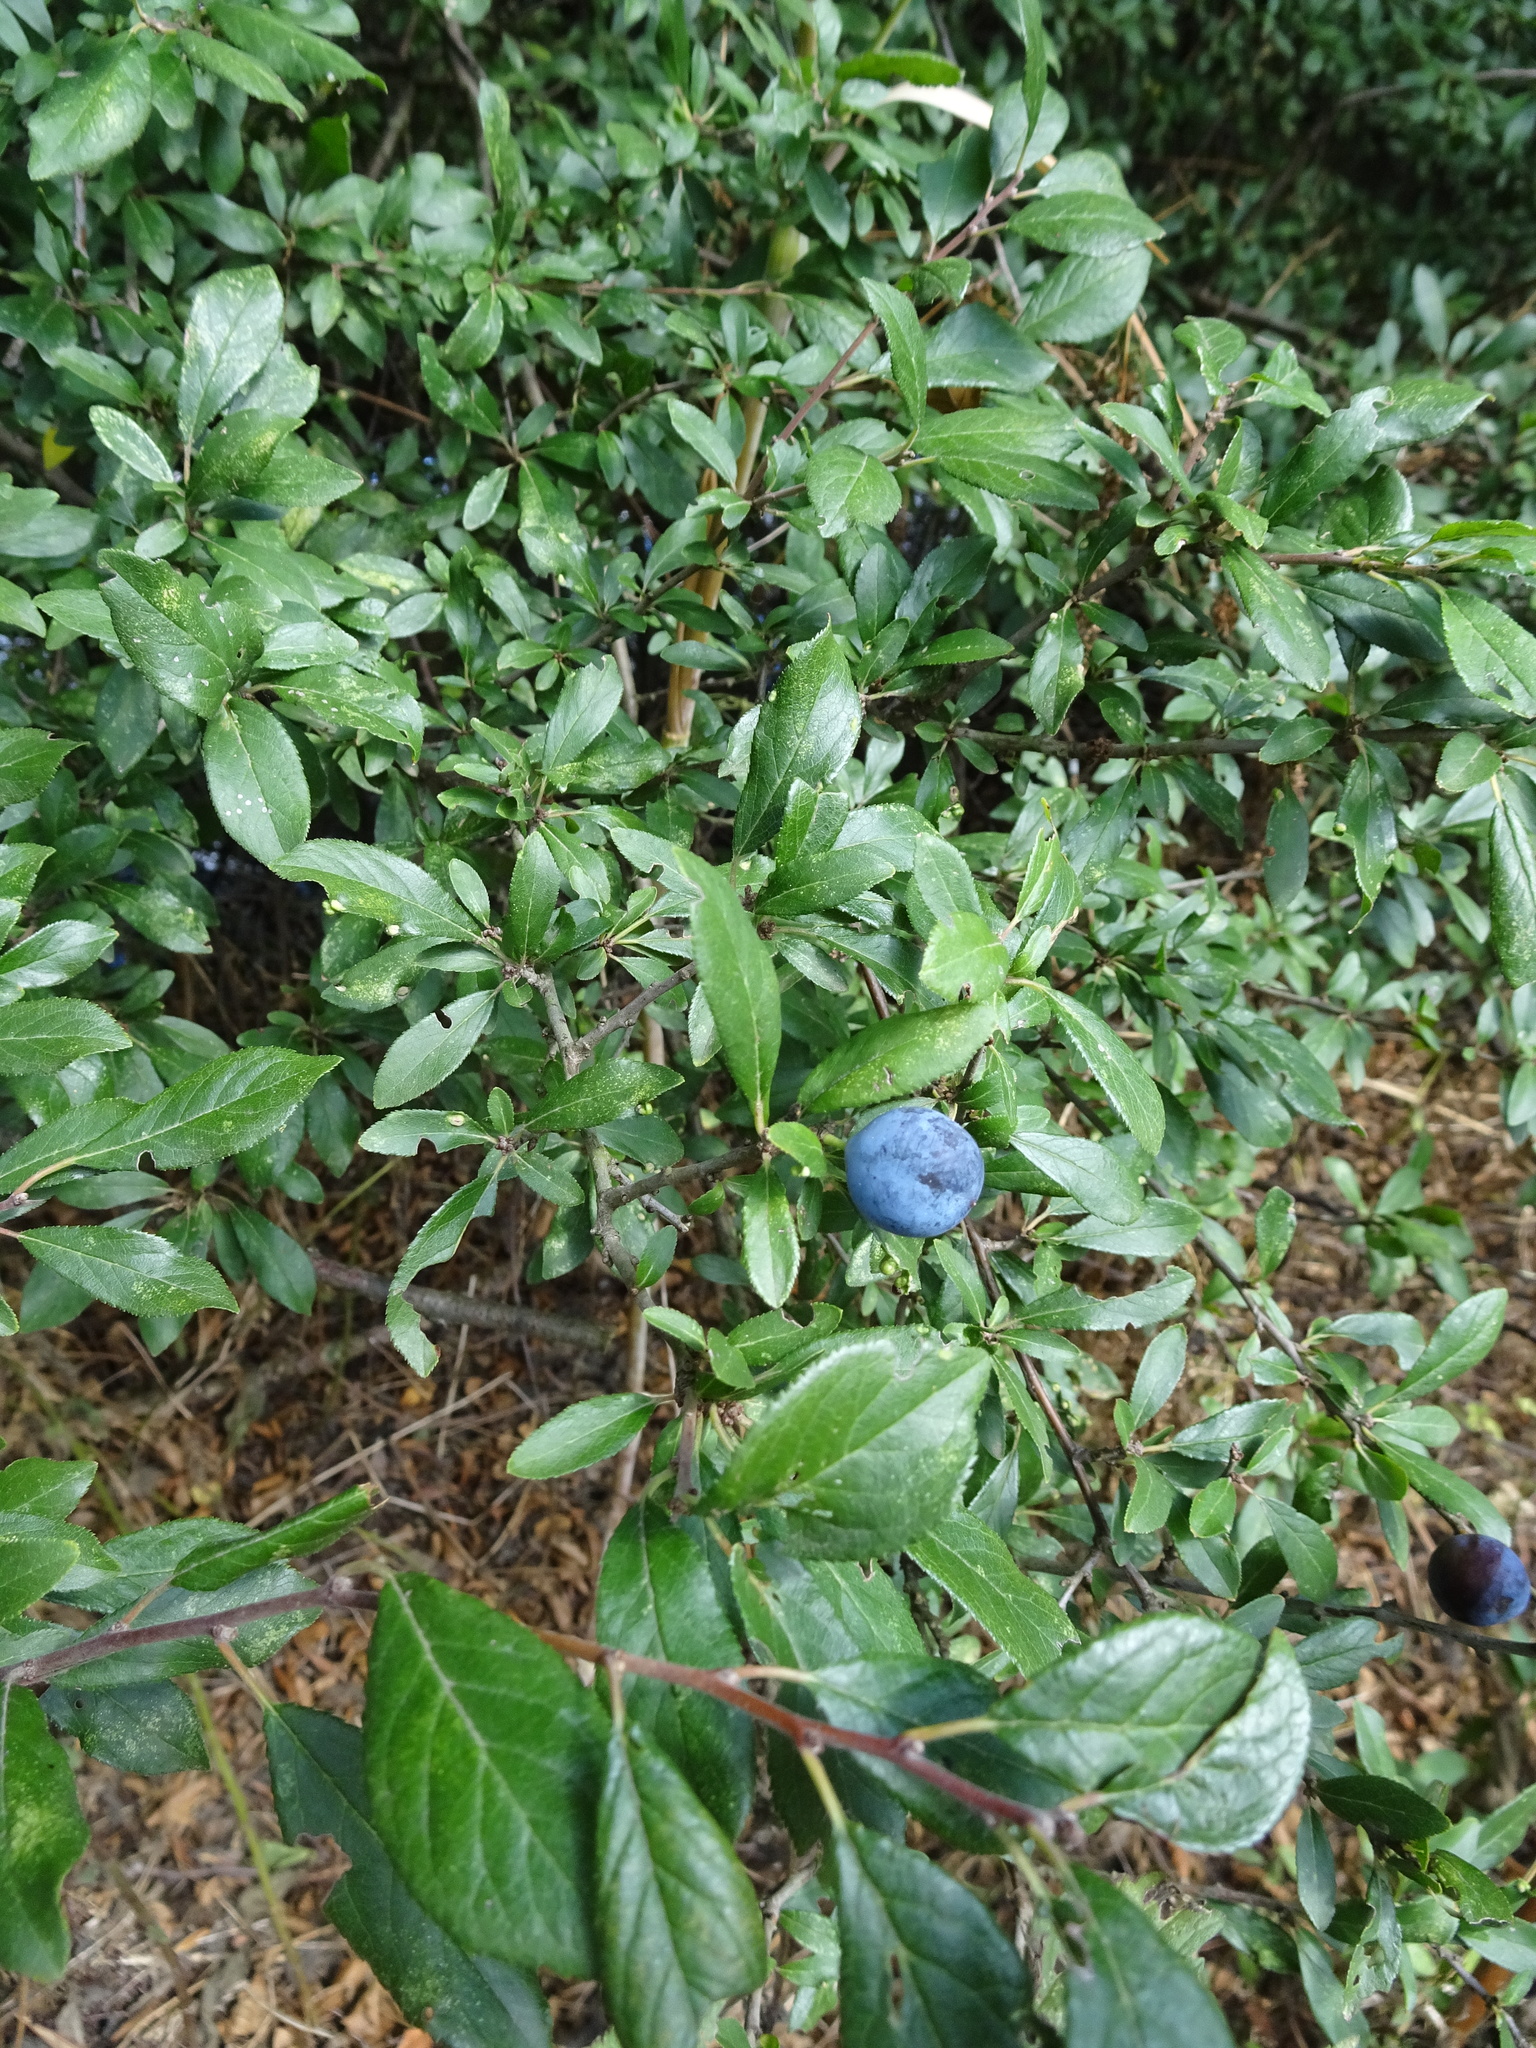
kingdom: Plantae
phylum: Tracheophyta
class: Magnoliopsida
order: Rosales
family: Rosaceae
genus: Prunus
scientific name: Prunus spinosa
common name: Blackthorn
